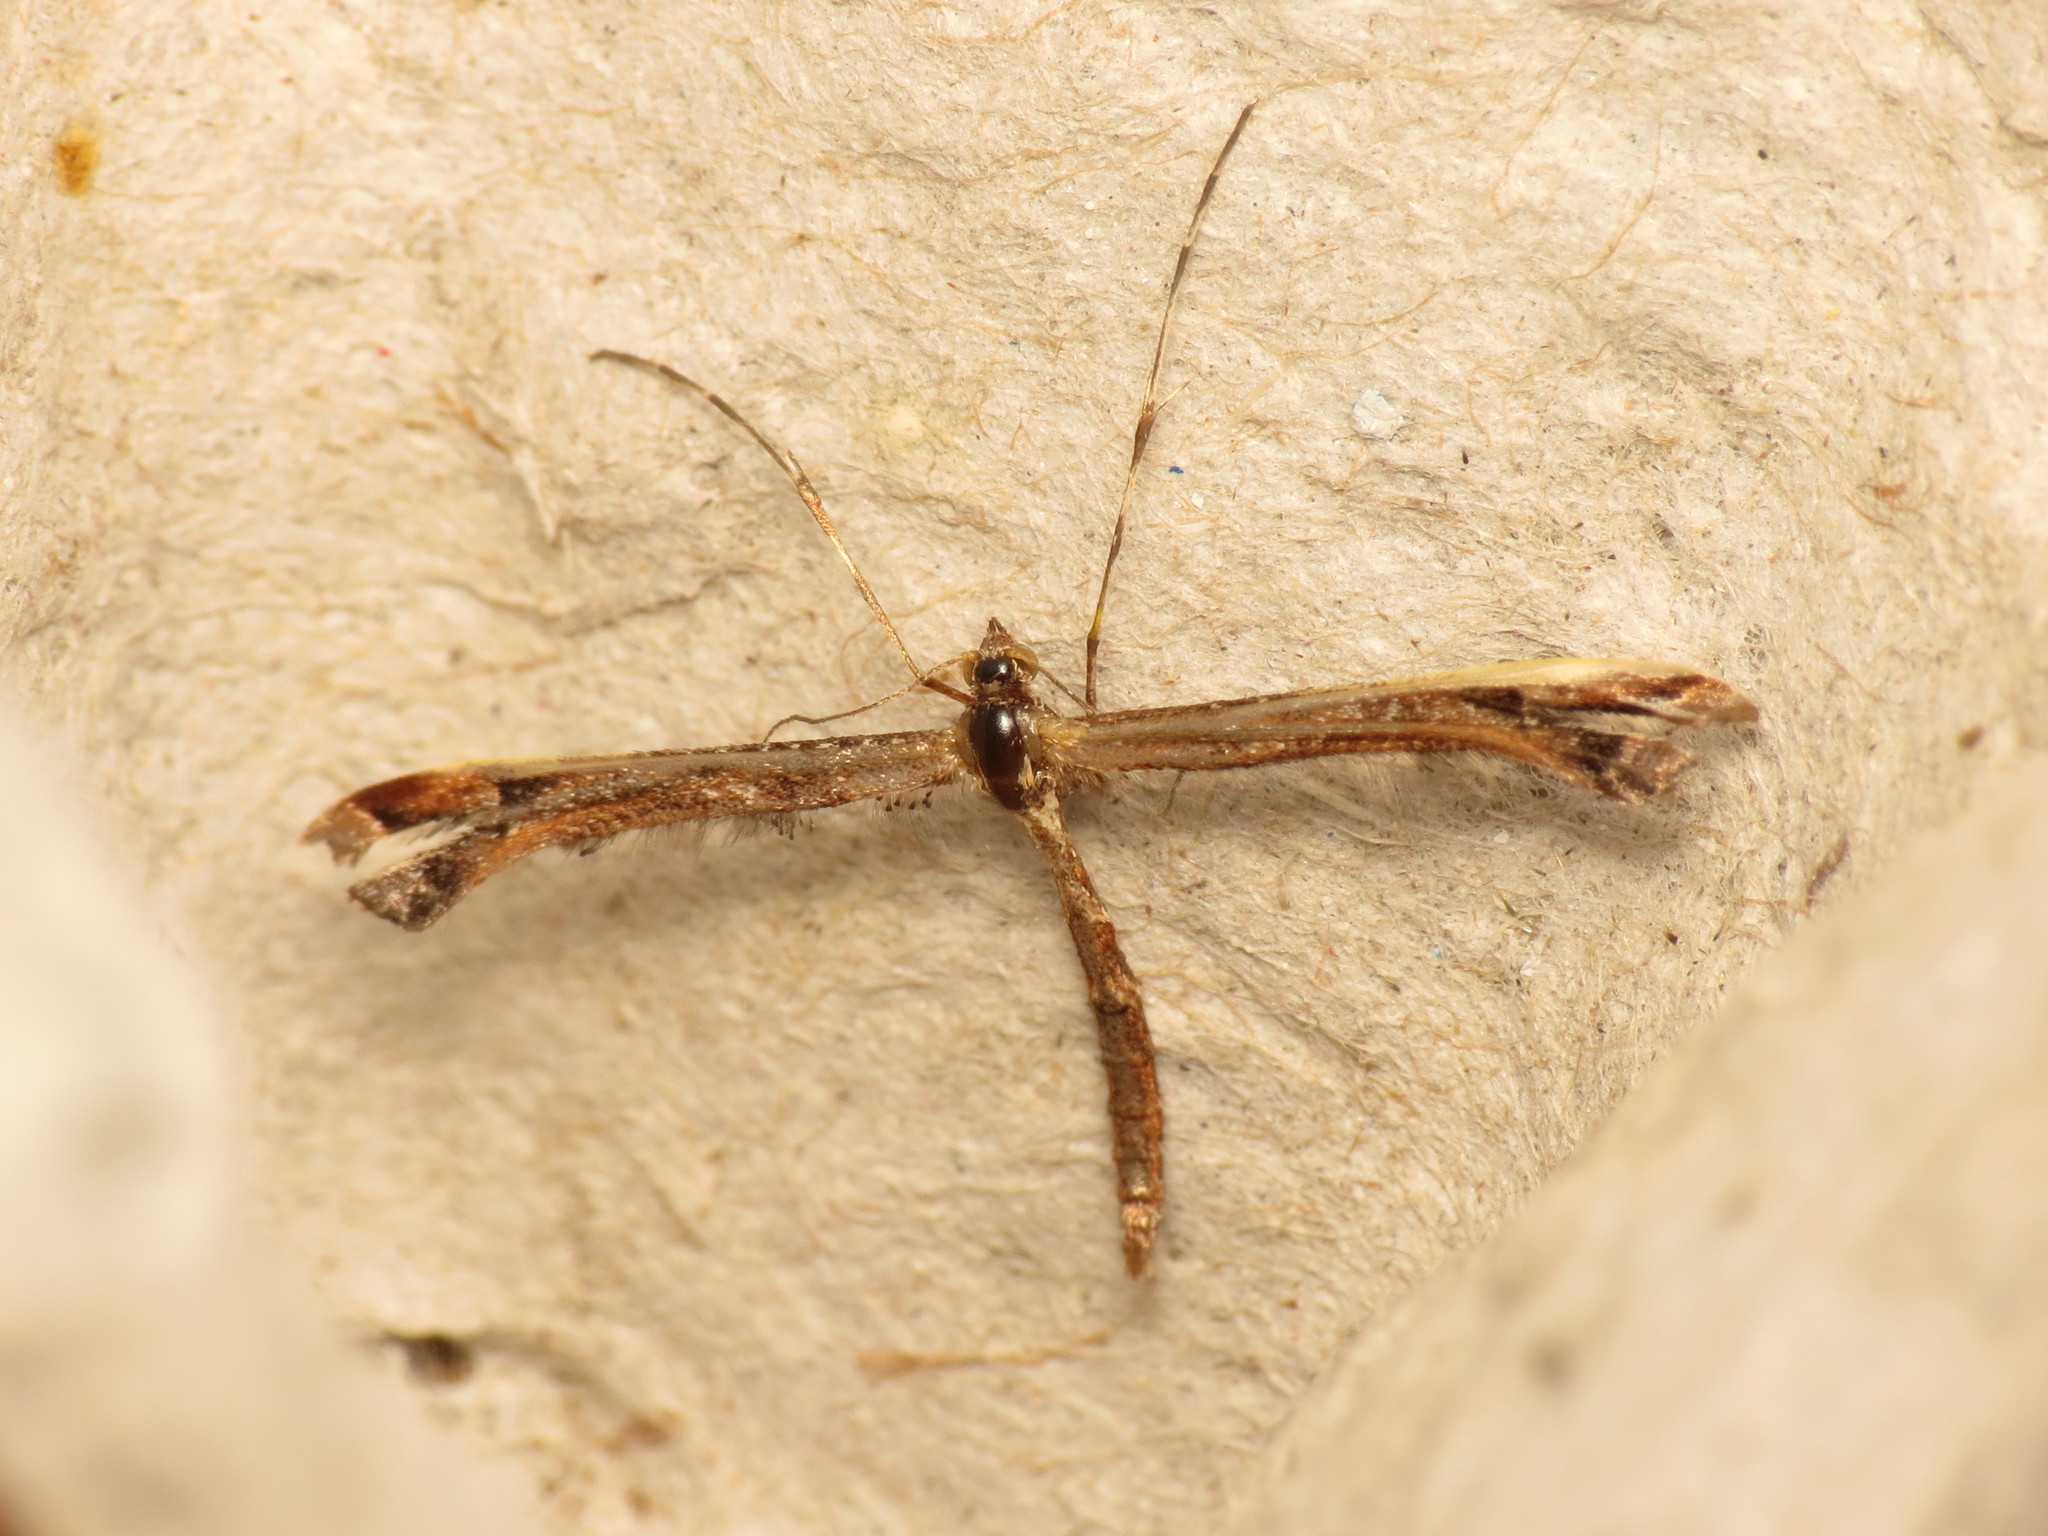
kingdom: Animalia
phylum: Arthropoda
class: Insecta
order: Lepidoptera
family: Pterophoridae
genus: Amblyptilia
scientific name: Amblyptilia acanthadactyla
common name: Beautiful plume
